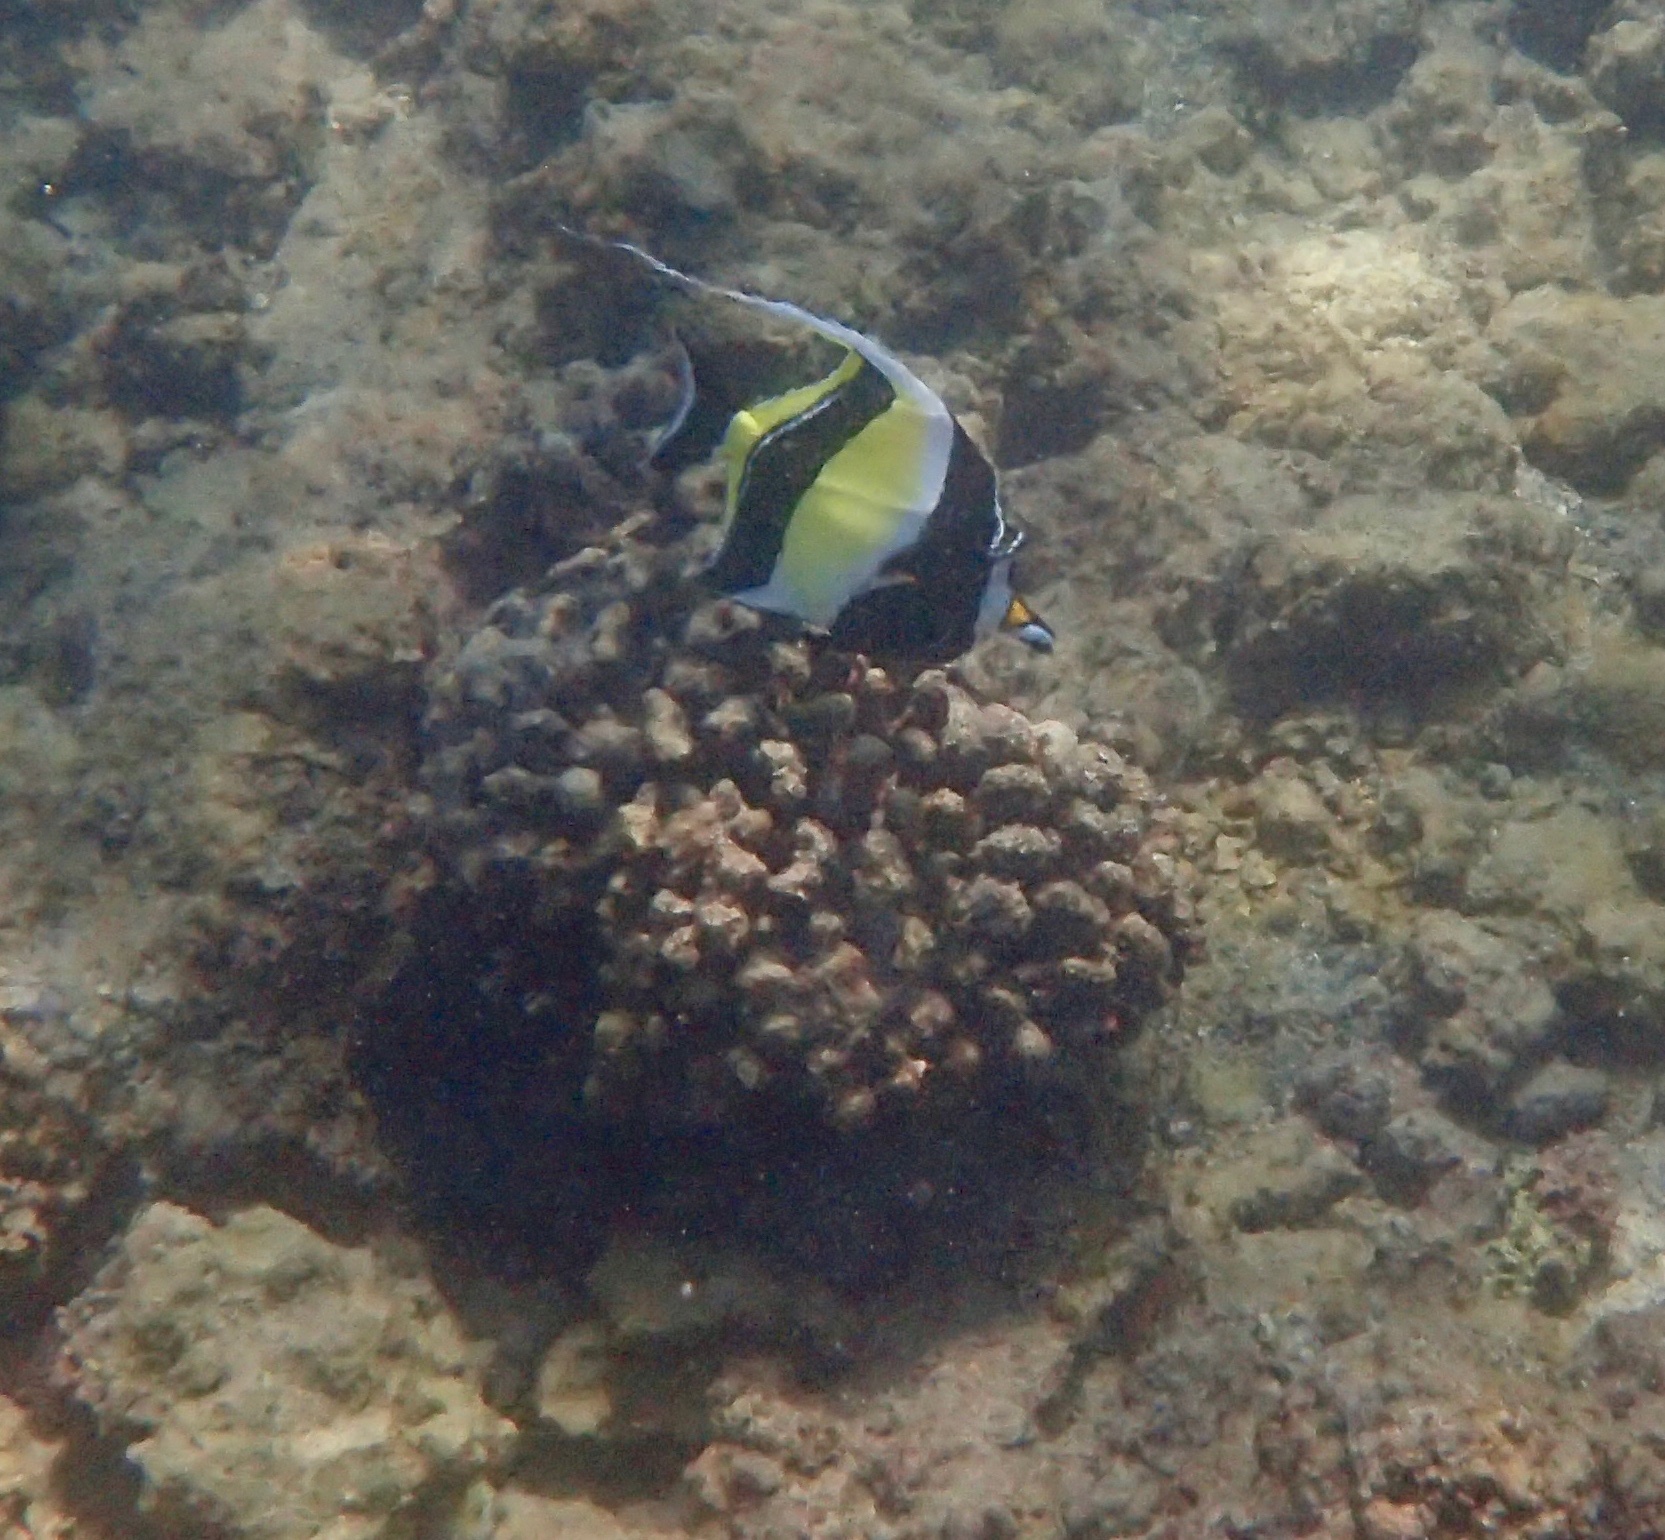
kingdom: Animalia
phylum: Chordata
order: Perciformes
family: Zanclidae
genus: Zanclus
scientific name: Zanclus cornutus
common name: Moorish idol
